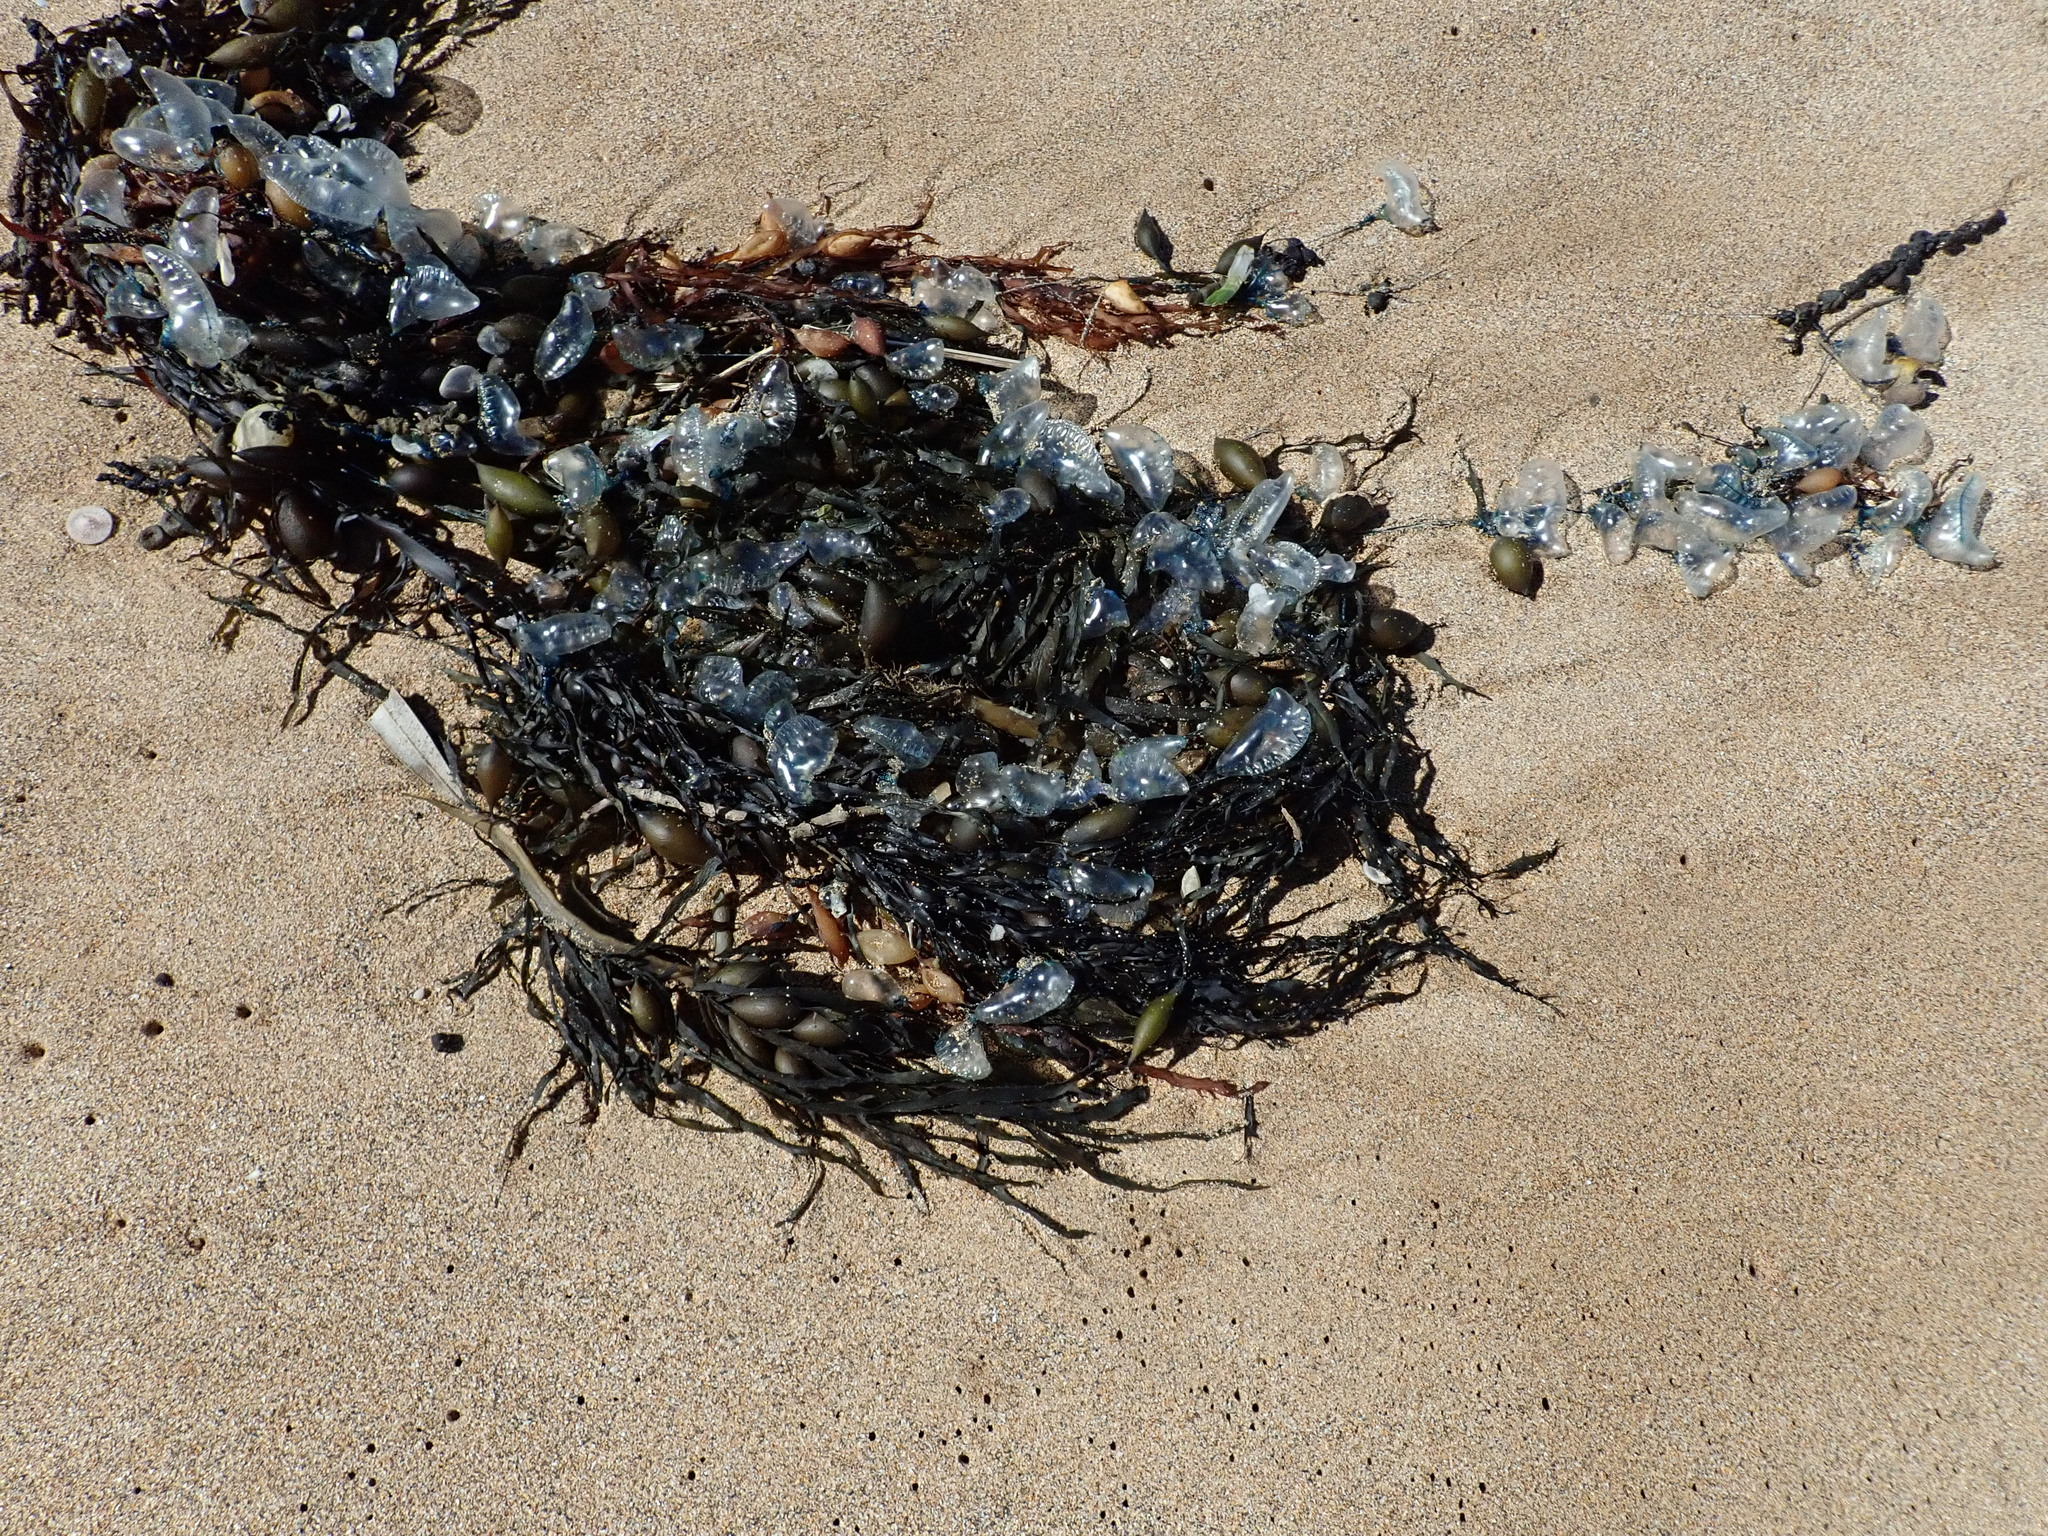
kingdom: Animalia
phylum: Cnidaria
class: Hydrozoa
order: Siphonophorae
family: Physaliidae
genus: Physalia
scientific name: Physalia physalis
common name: Portuguese man-of-war
